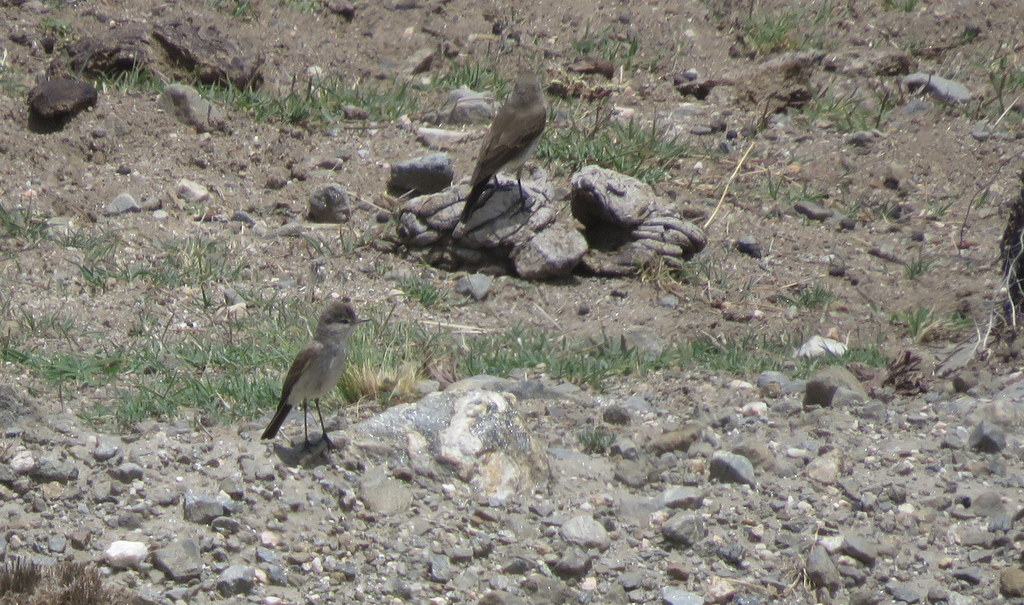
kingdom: Animalia
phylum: Chordata
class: Aves
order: Passeriformes
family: Tyrannidae
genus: Muscisaxicola
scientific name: Muscisaxicola maculirostris
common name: Spot-billed ground tyrant
